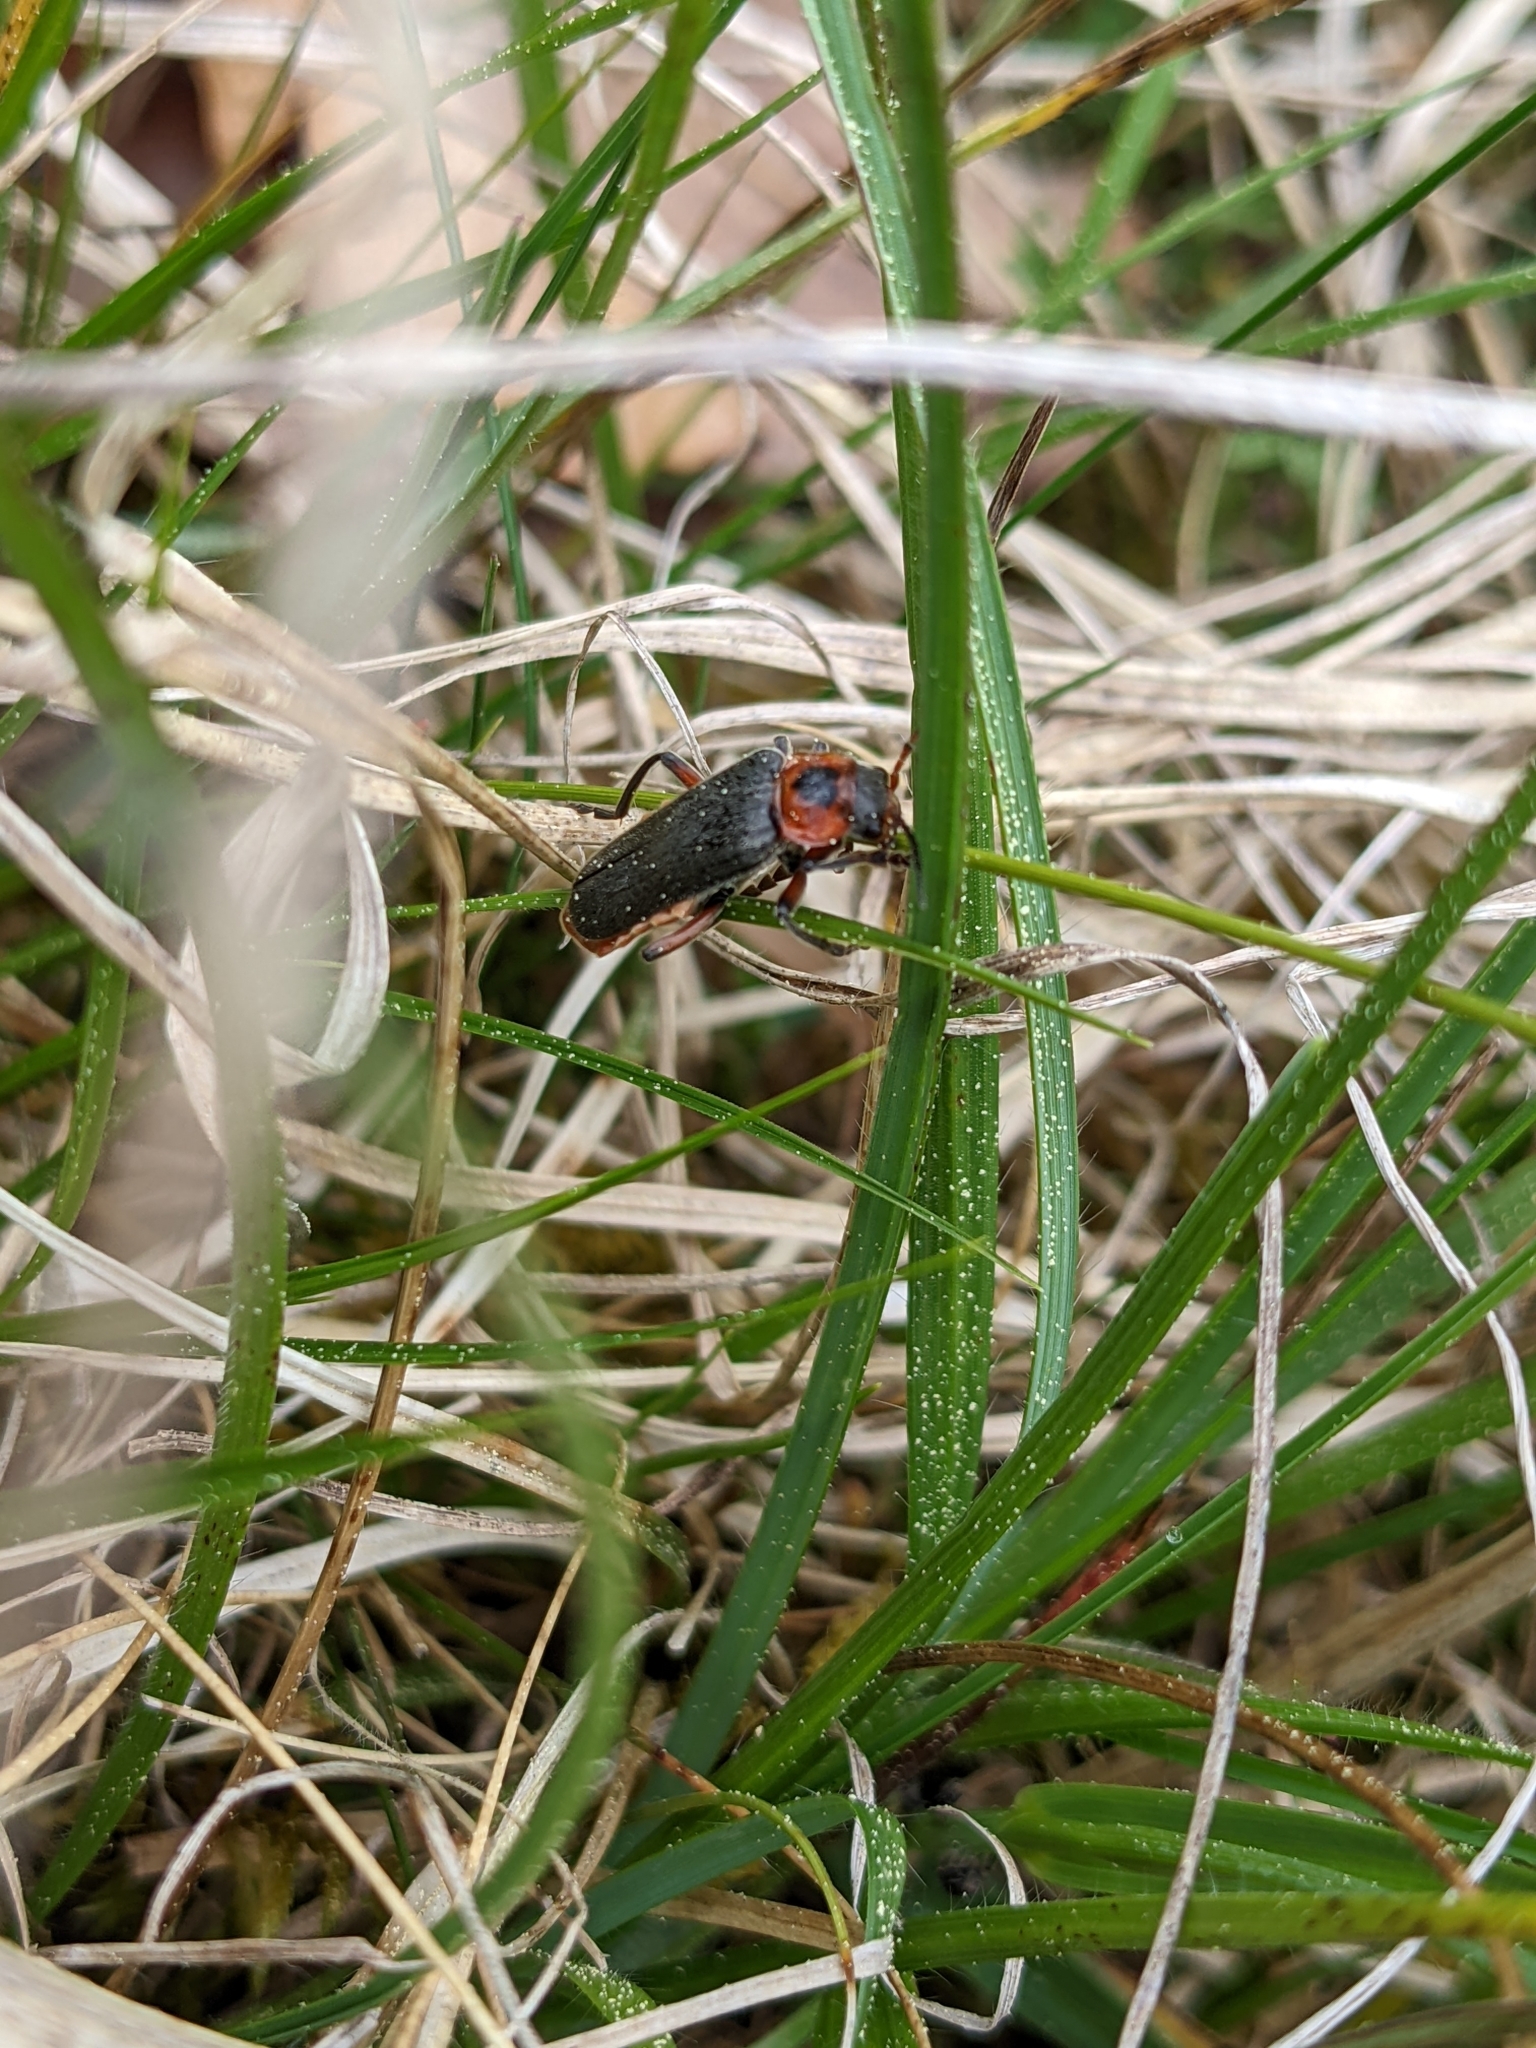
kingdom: Animalia
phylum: Arthropoda
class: Insecta
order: Coleoptera
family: Cantharidae
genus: Cantharis
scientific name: Cantharis rustica
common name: Soldier beetle
